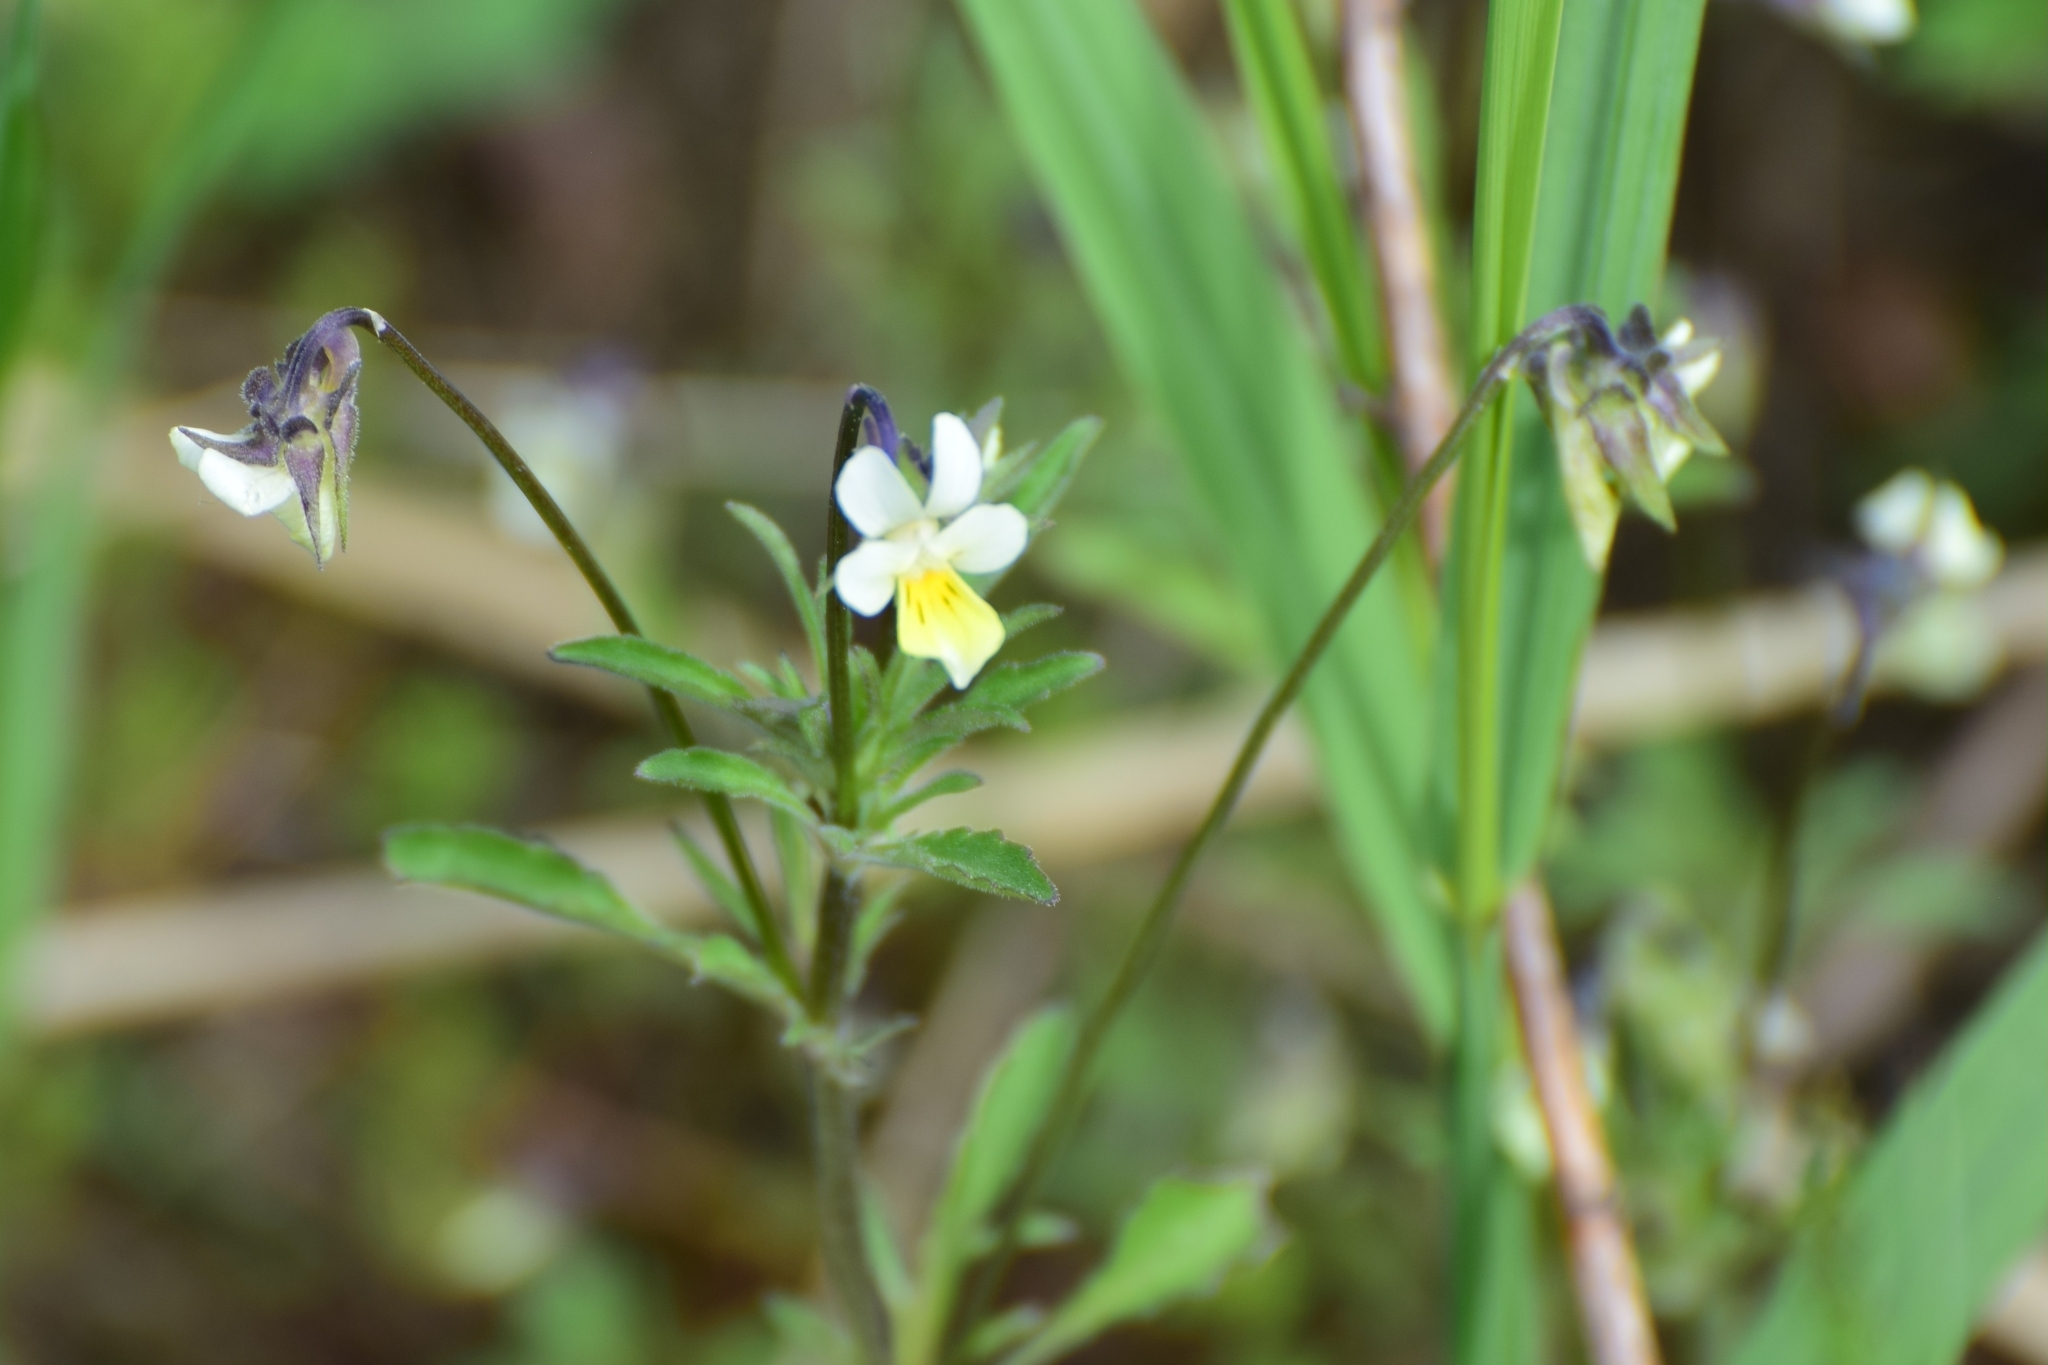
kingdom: Plantae
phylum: Tracheophyta
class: Magnoliopsida
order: Malpighiales
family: Violaceae
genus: Viola
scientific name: Viola arvensis
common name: Field pansy
